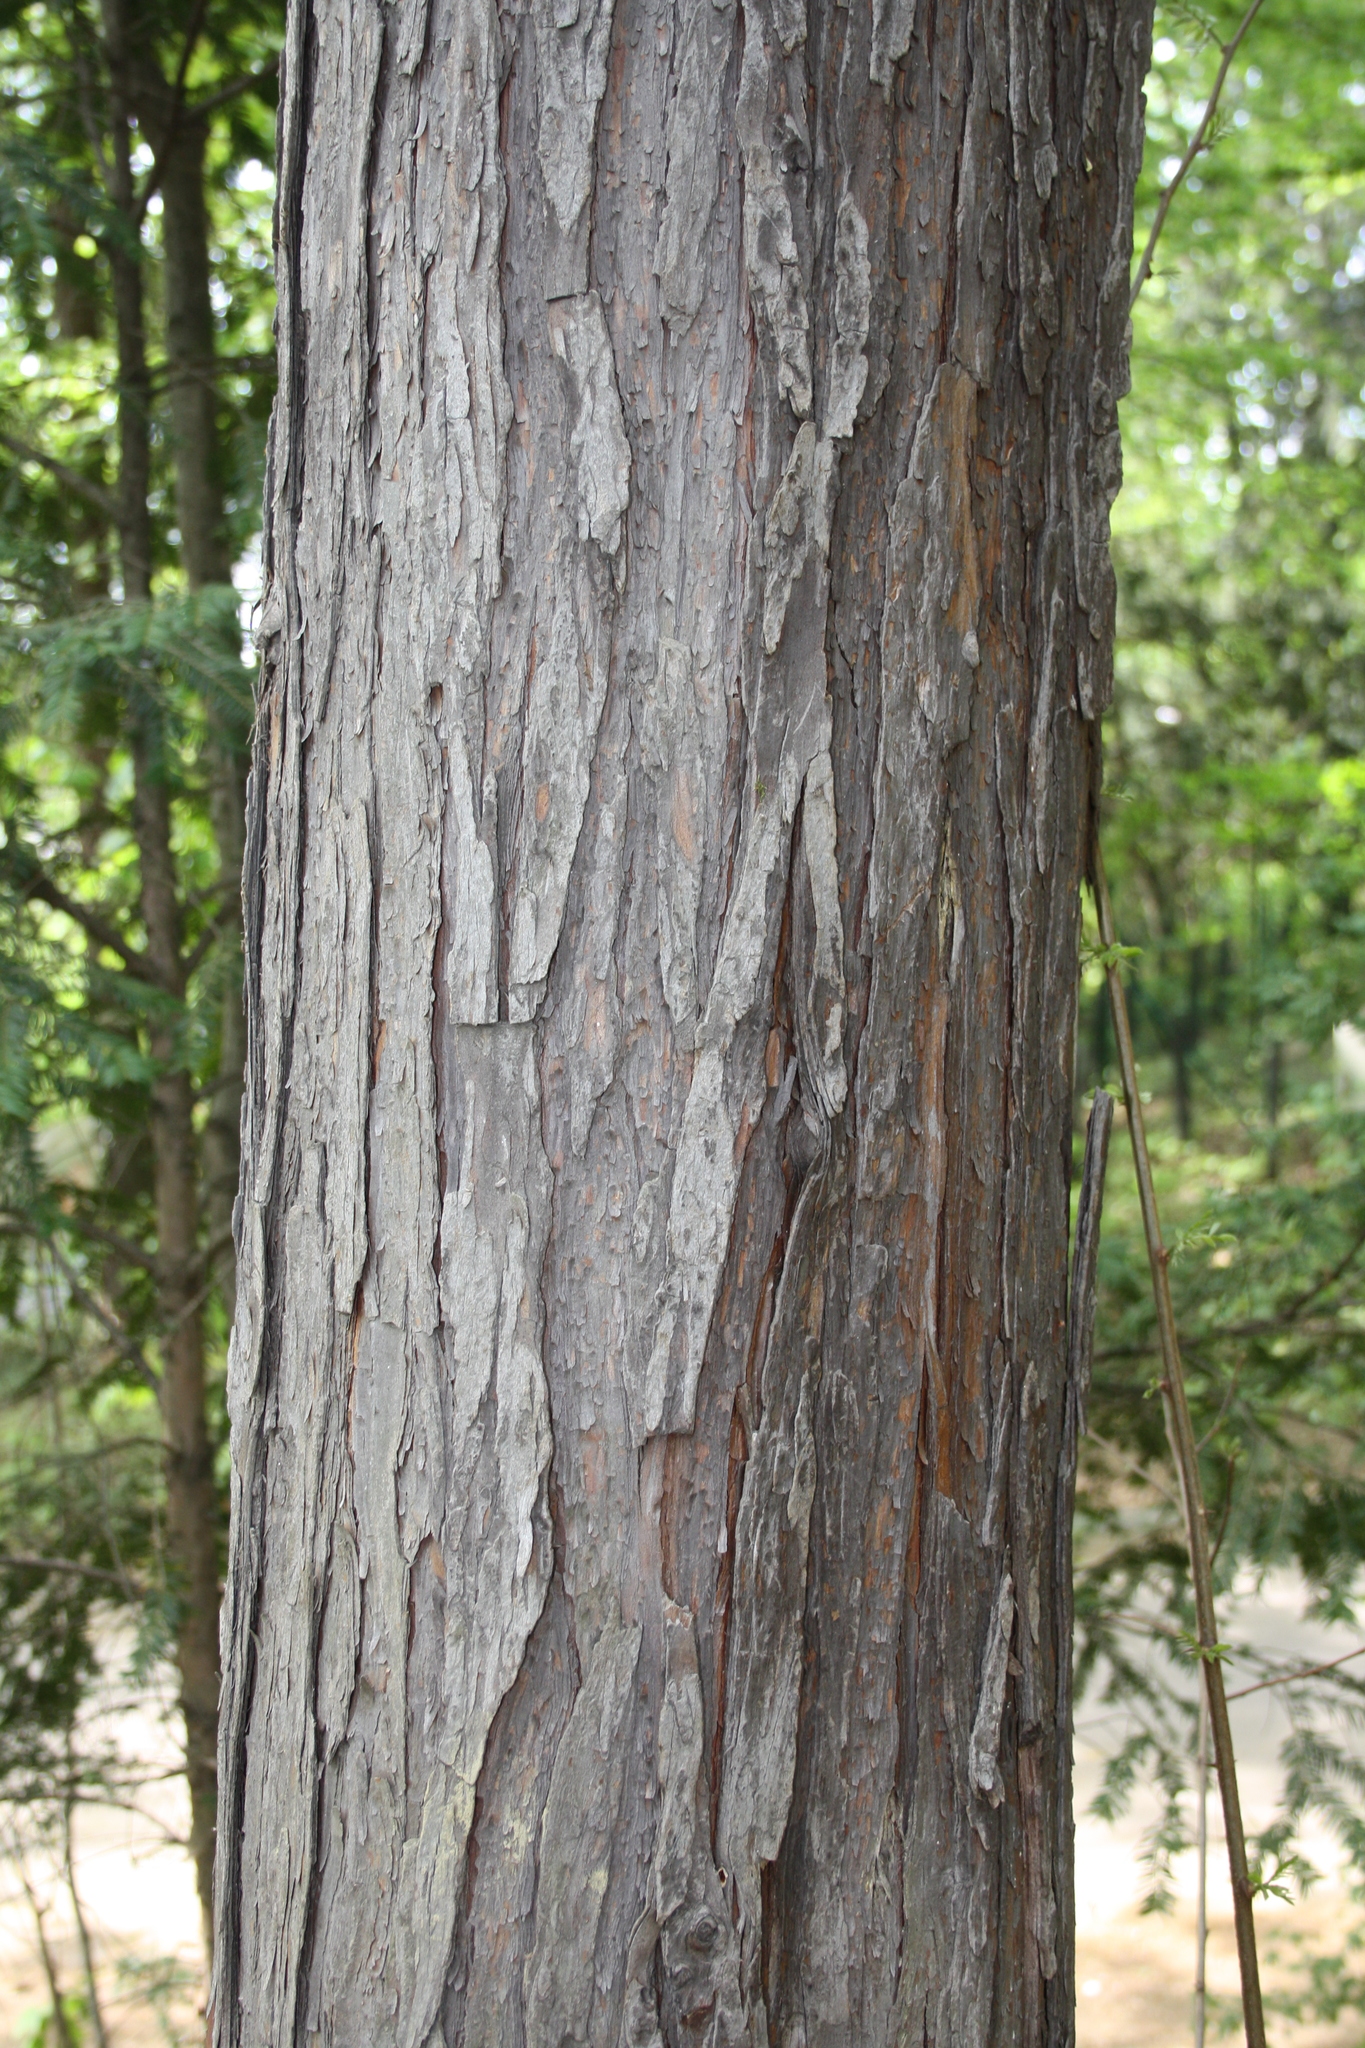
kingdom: Plantae
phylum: Tracheophyta
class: Pinopsida
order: Pinales
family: Taxaceae
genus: Taxus
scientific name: Taxus baccata
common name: Yew
